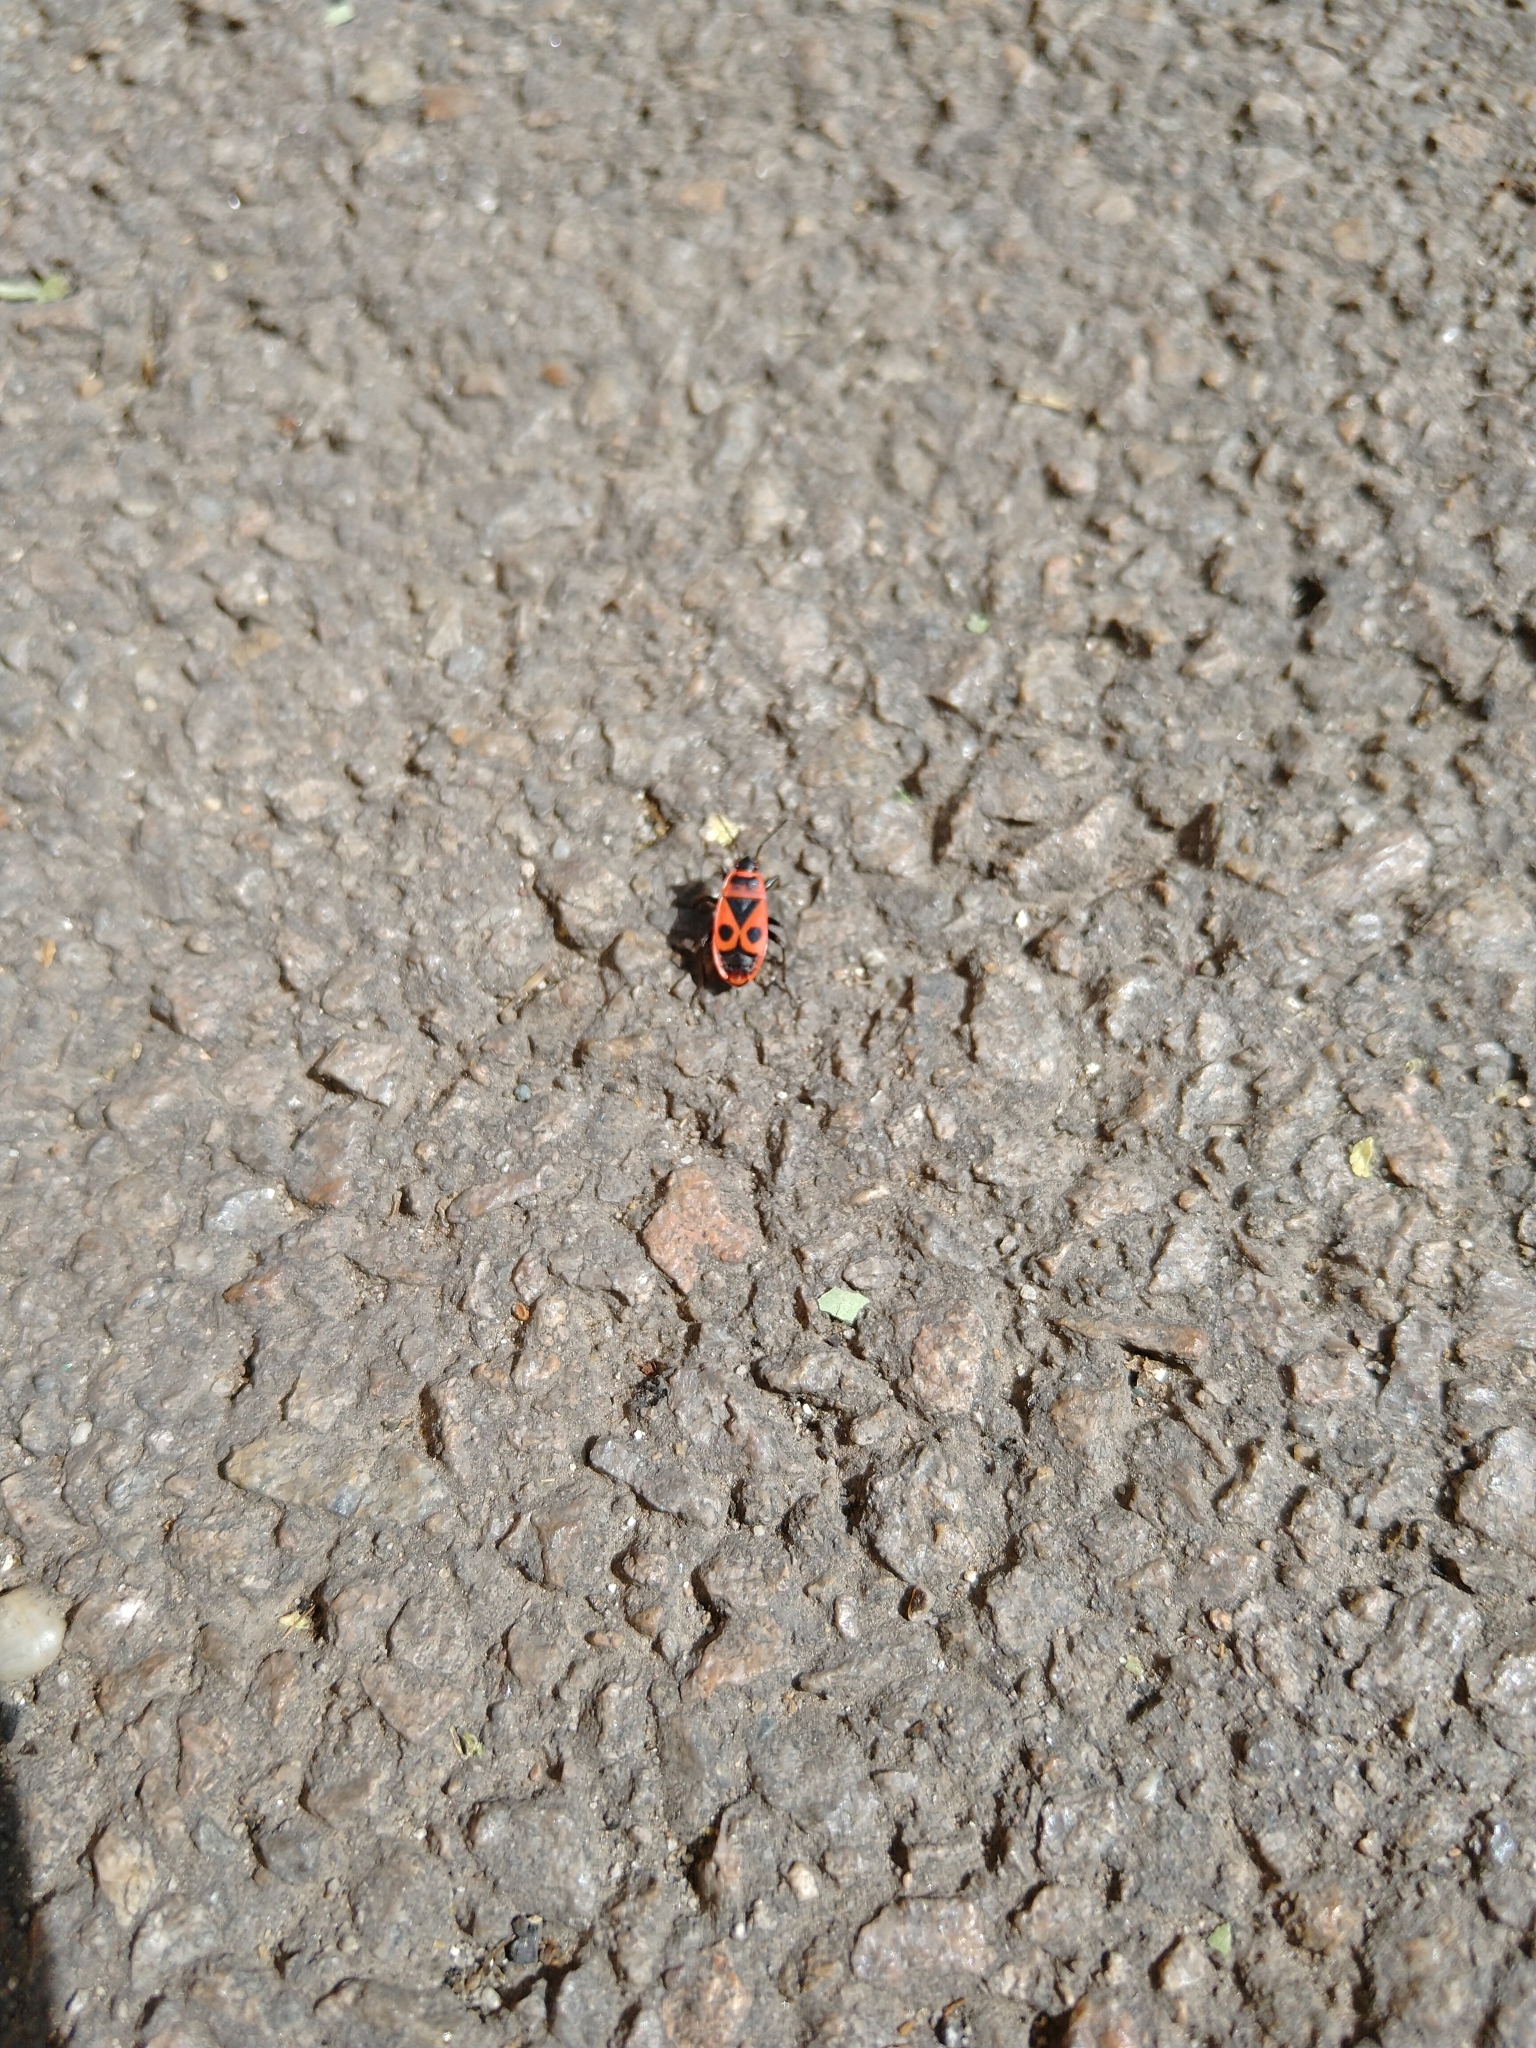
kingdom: Animalia
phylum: Arthropoda
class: Insecta
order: Hemiptera
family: Pyrrhocoridae
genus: Pyrrhocoris
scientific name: Pyrrhocoris apterus
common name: Firebug
